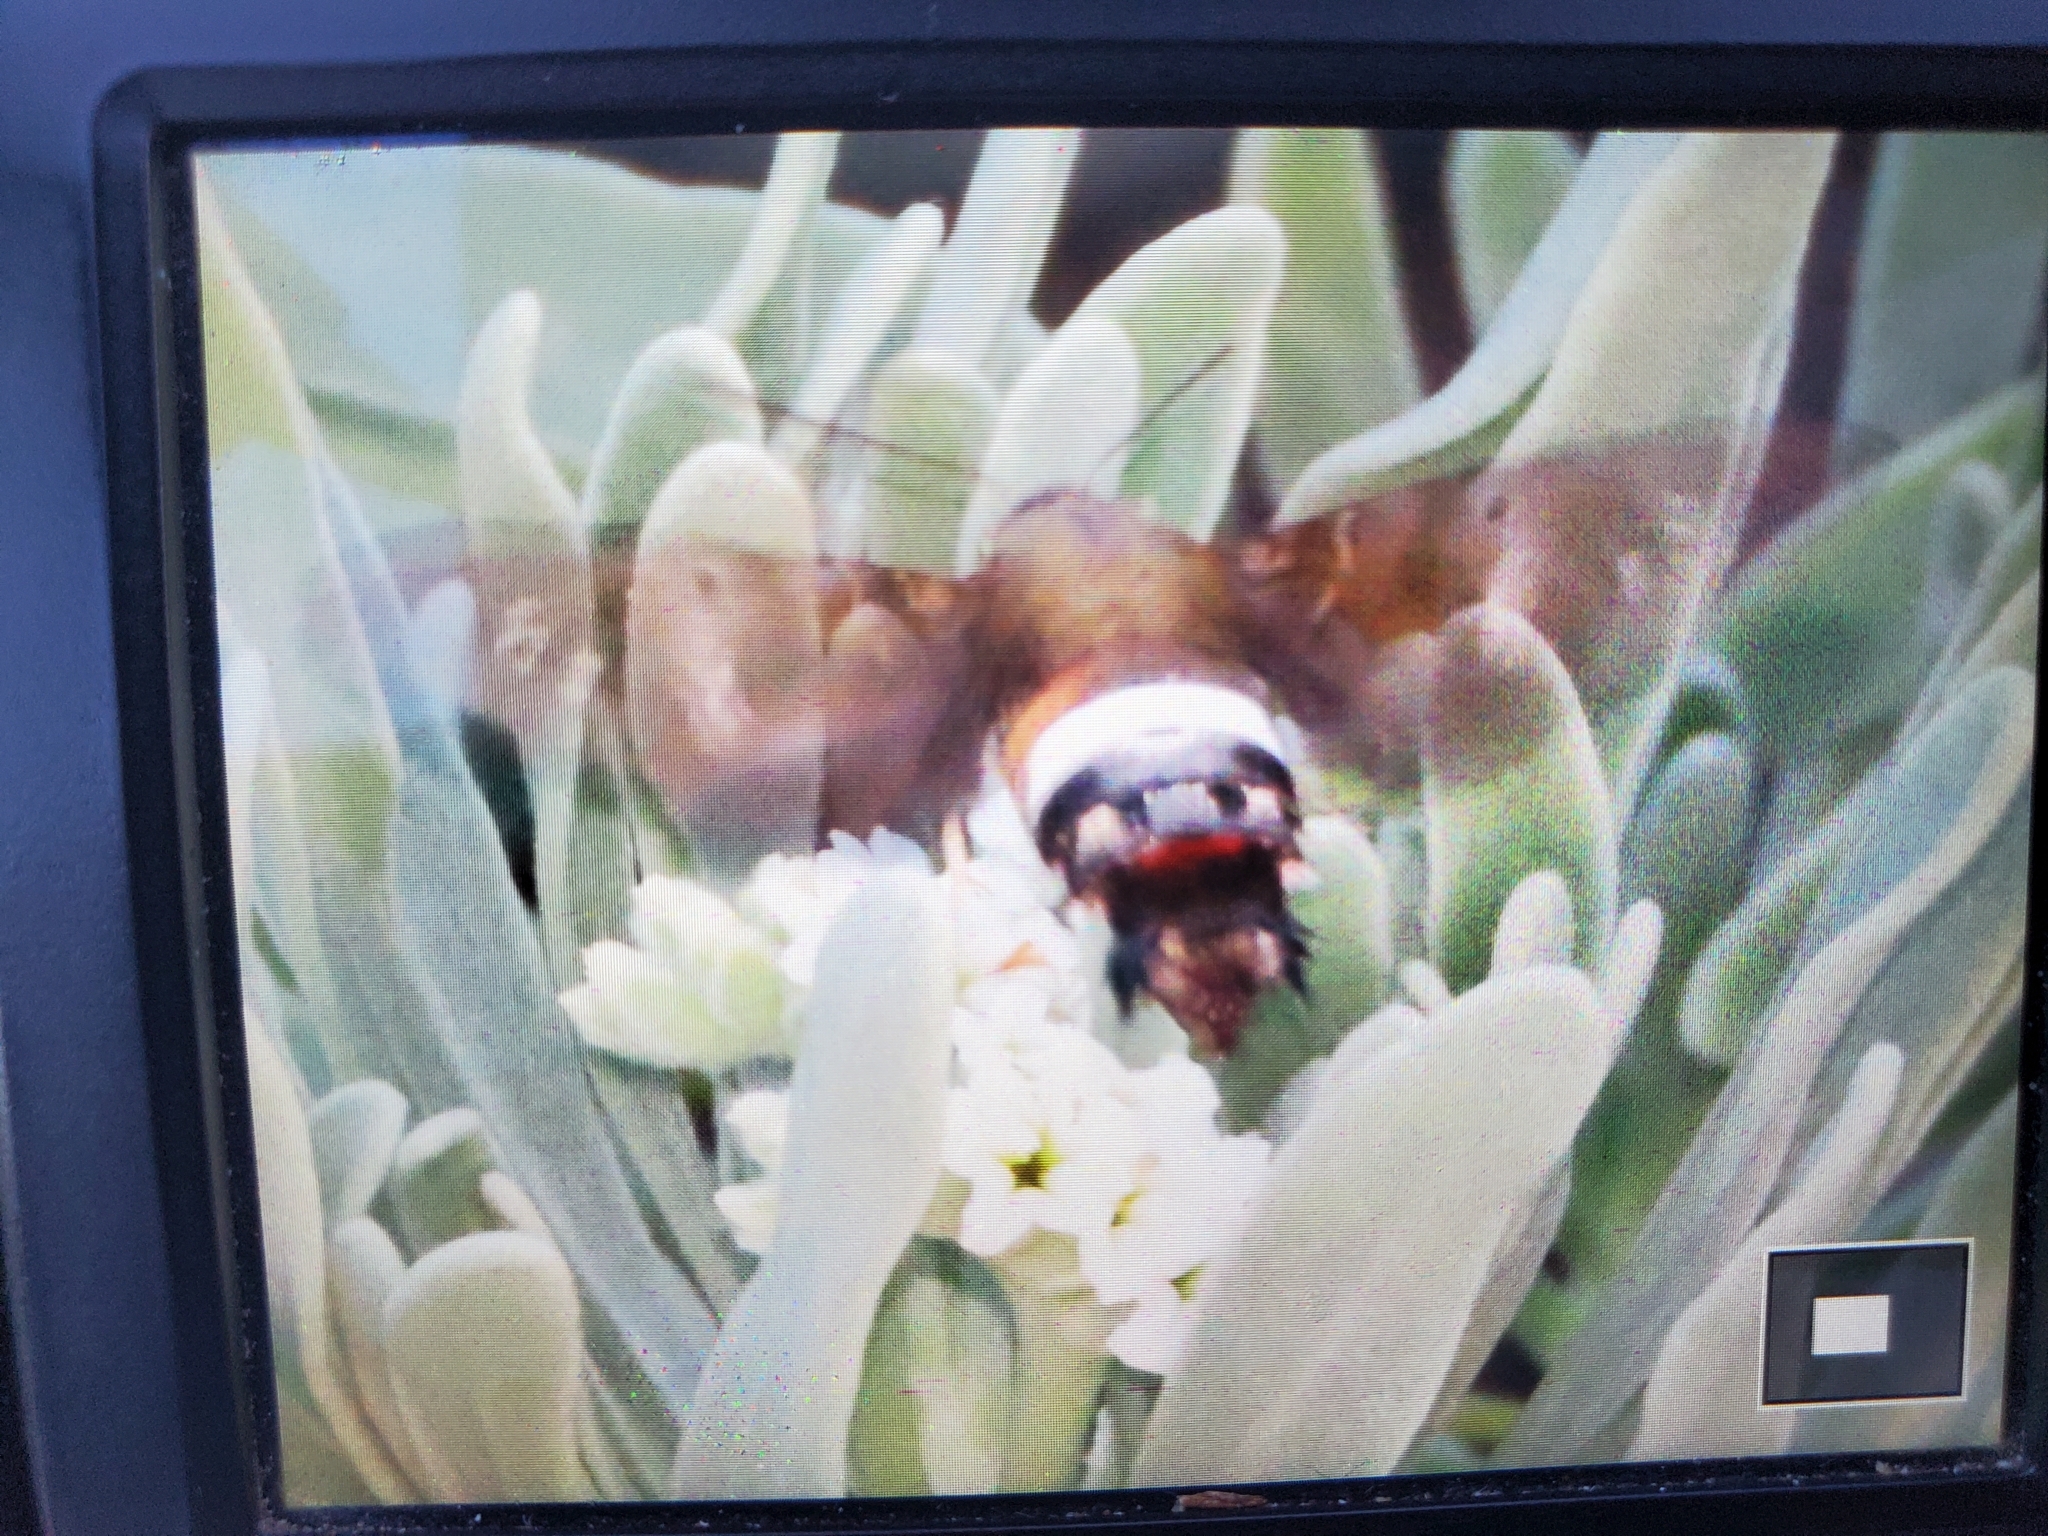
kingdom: Animalia
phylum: Arthropoda
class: Insecta
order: Lepidoptera
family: Sphingidae
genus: Aellopos
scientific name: Aellopos tantalus
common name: Tantalus sphinx
